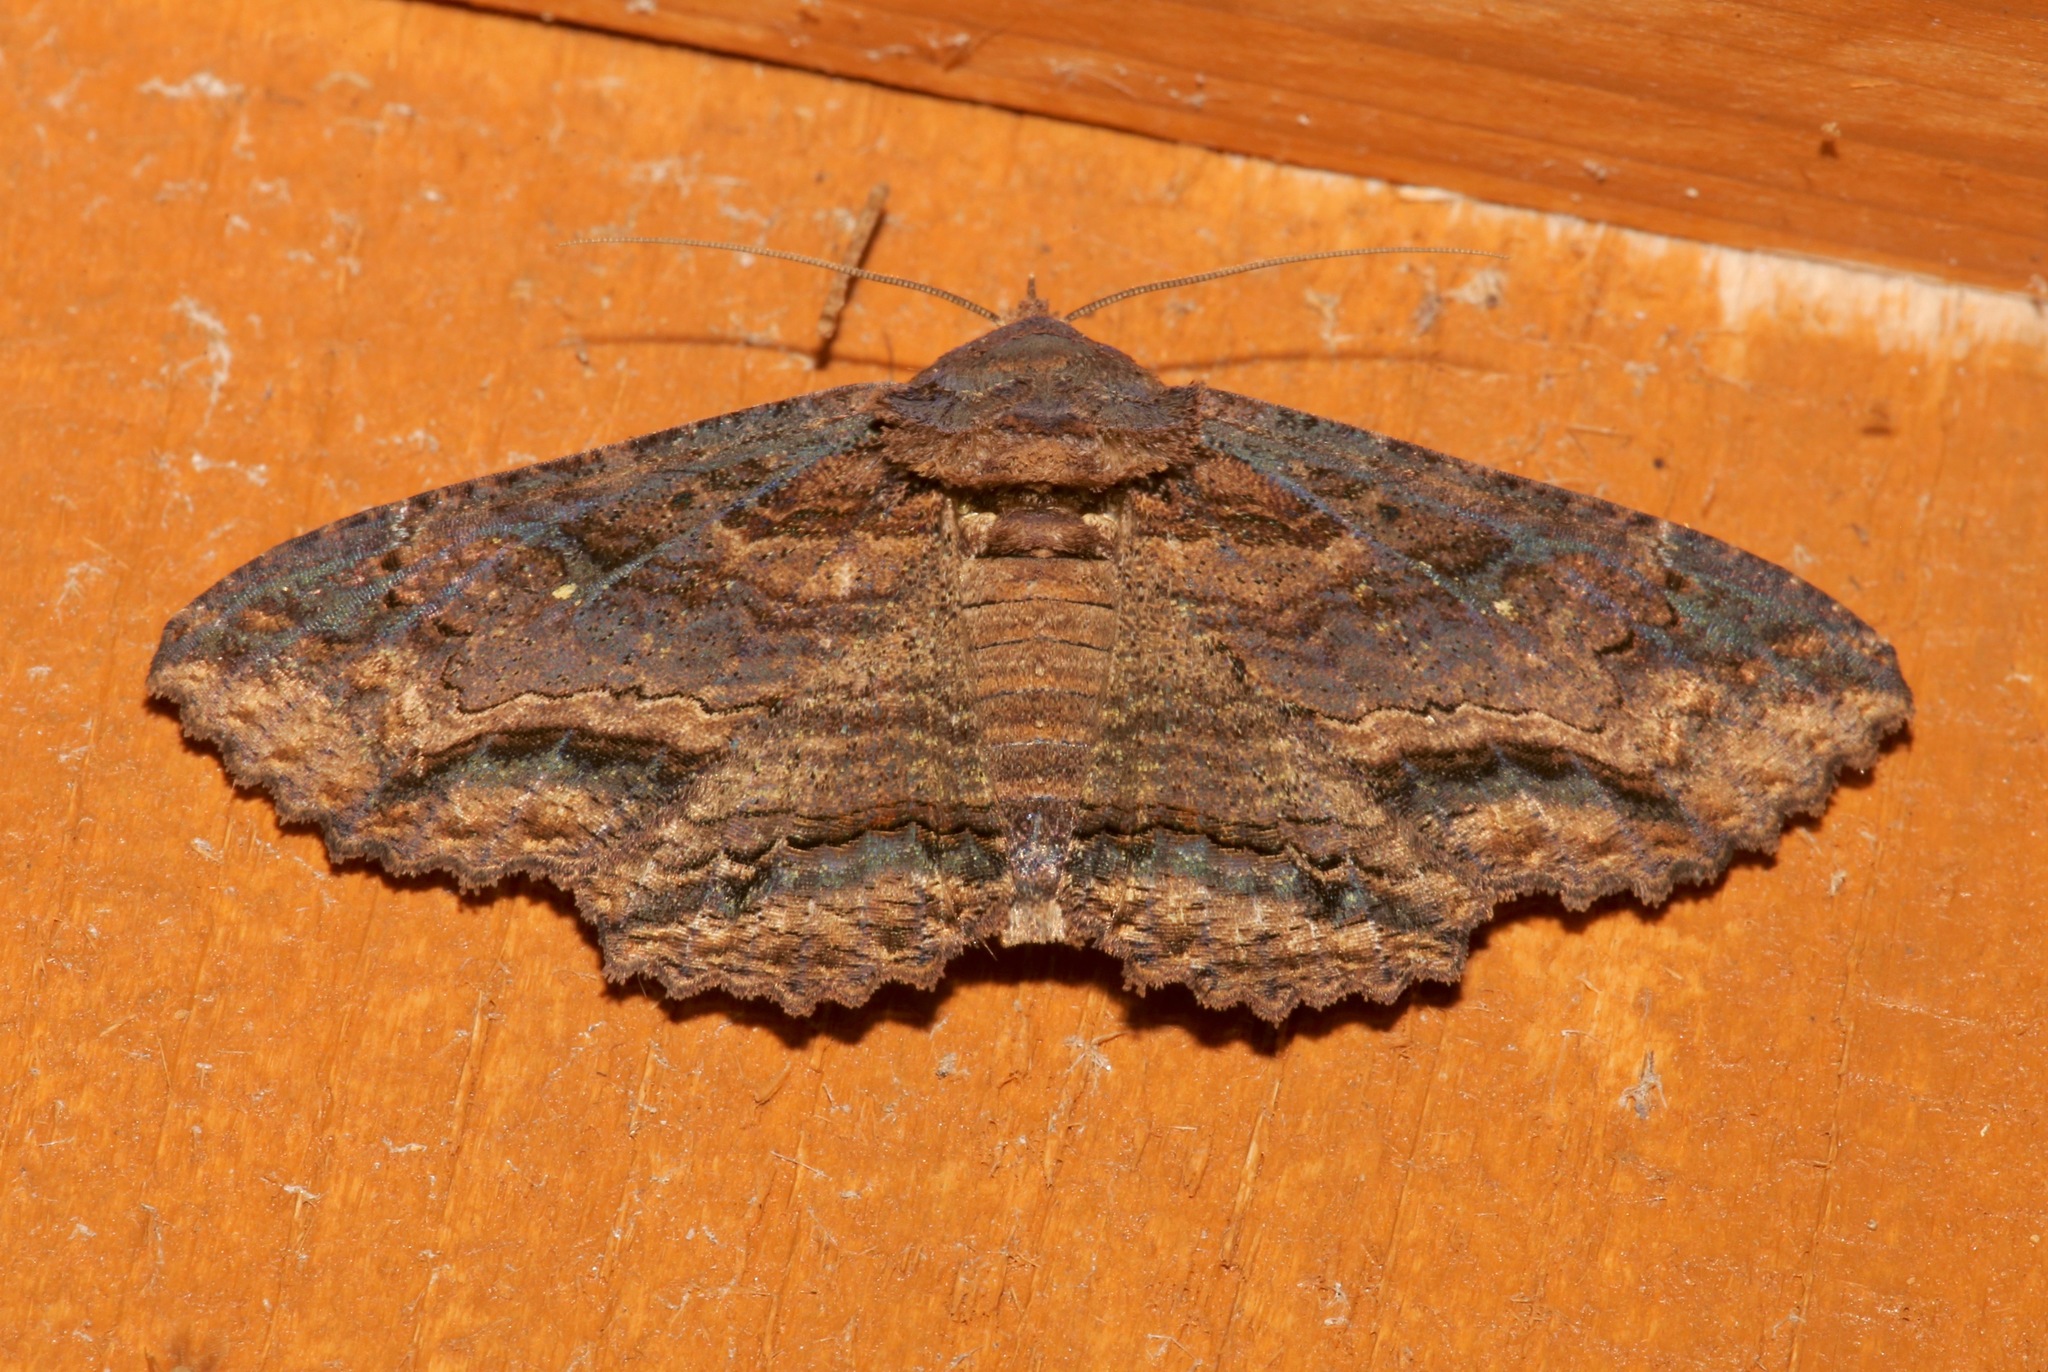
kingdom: Animalia
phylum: Arthropoda
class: Insecta
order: Lepidoptera
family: Erebidae
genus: Zale
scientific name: Zale lunata
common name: Lunate zale moth
